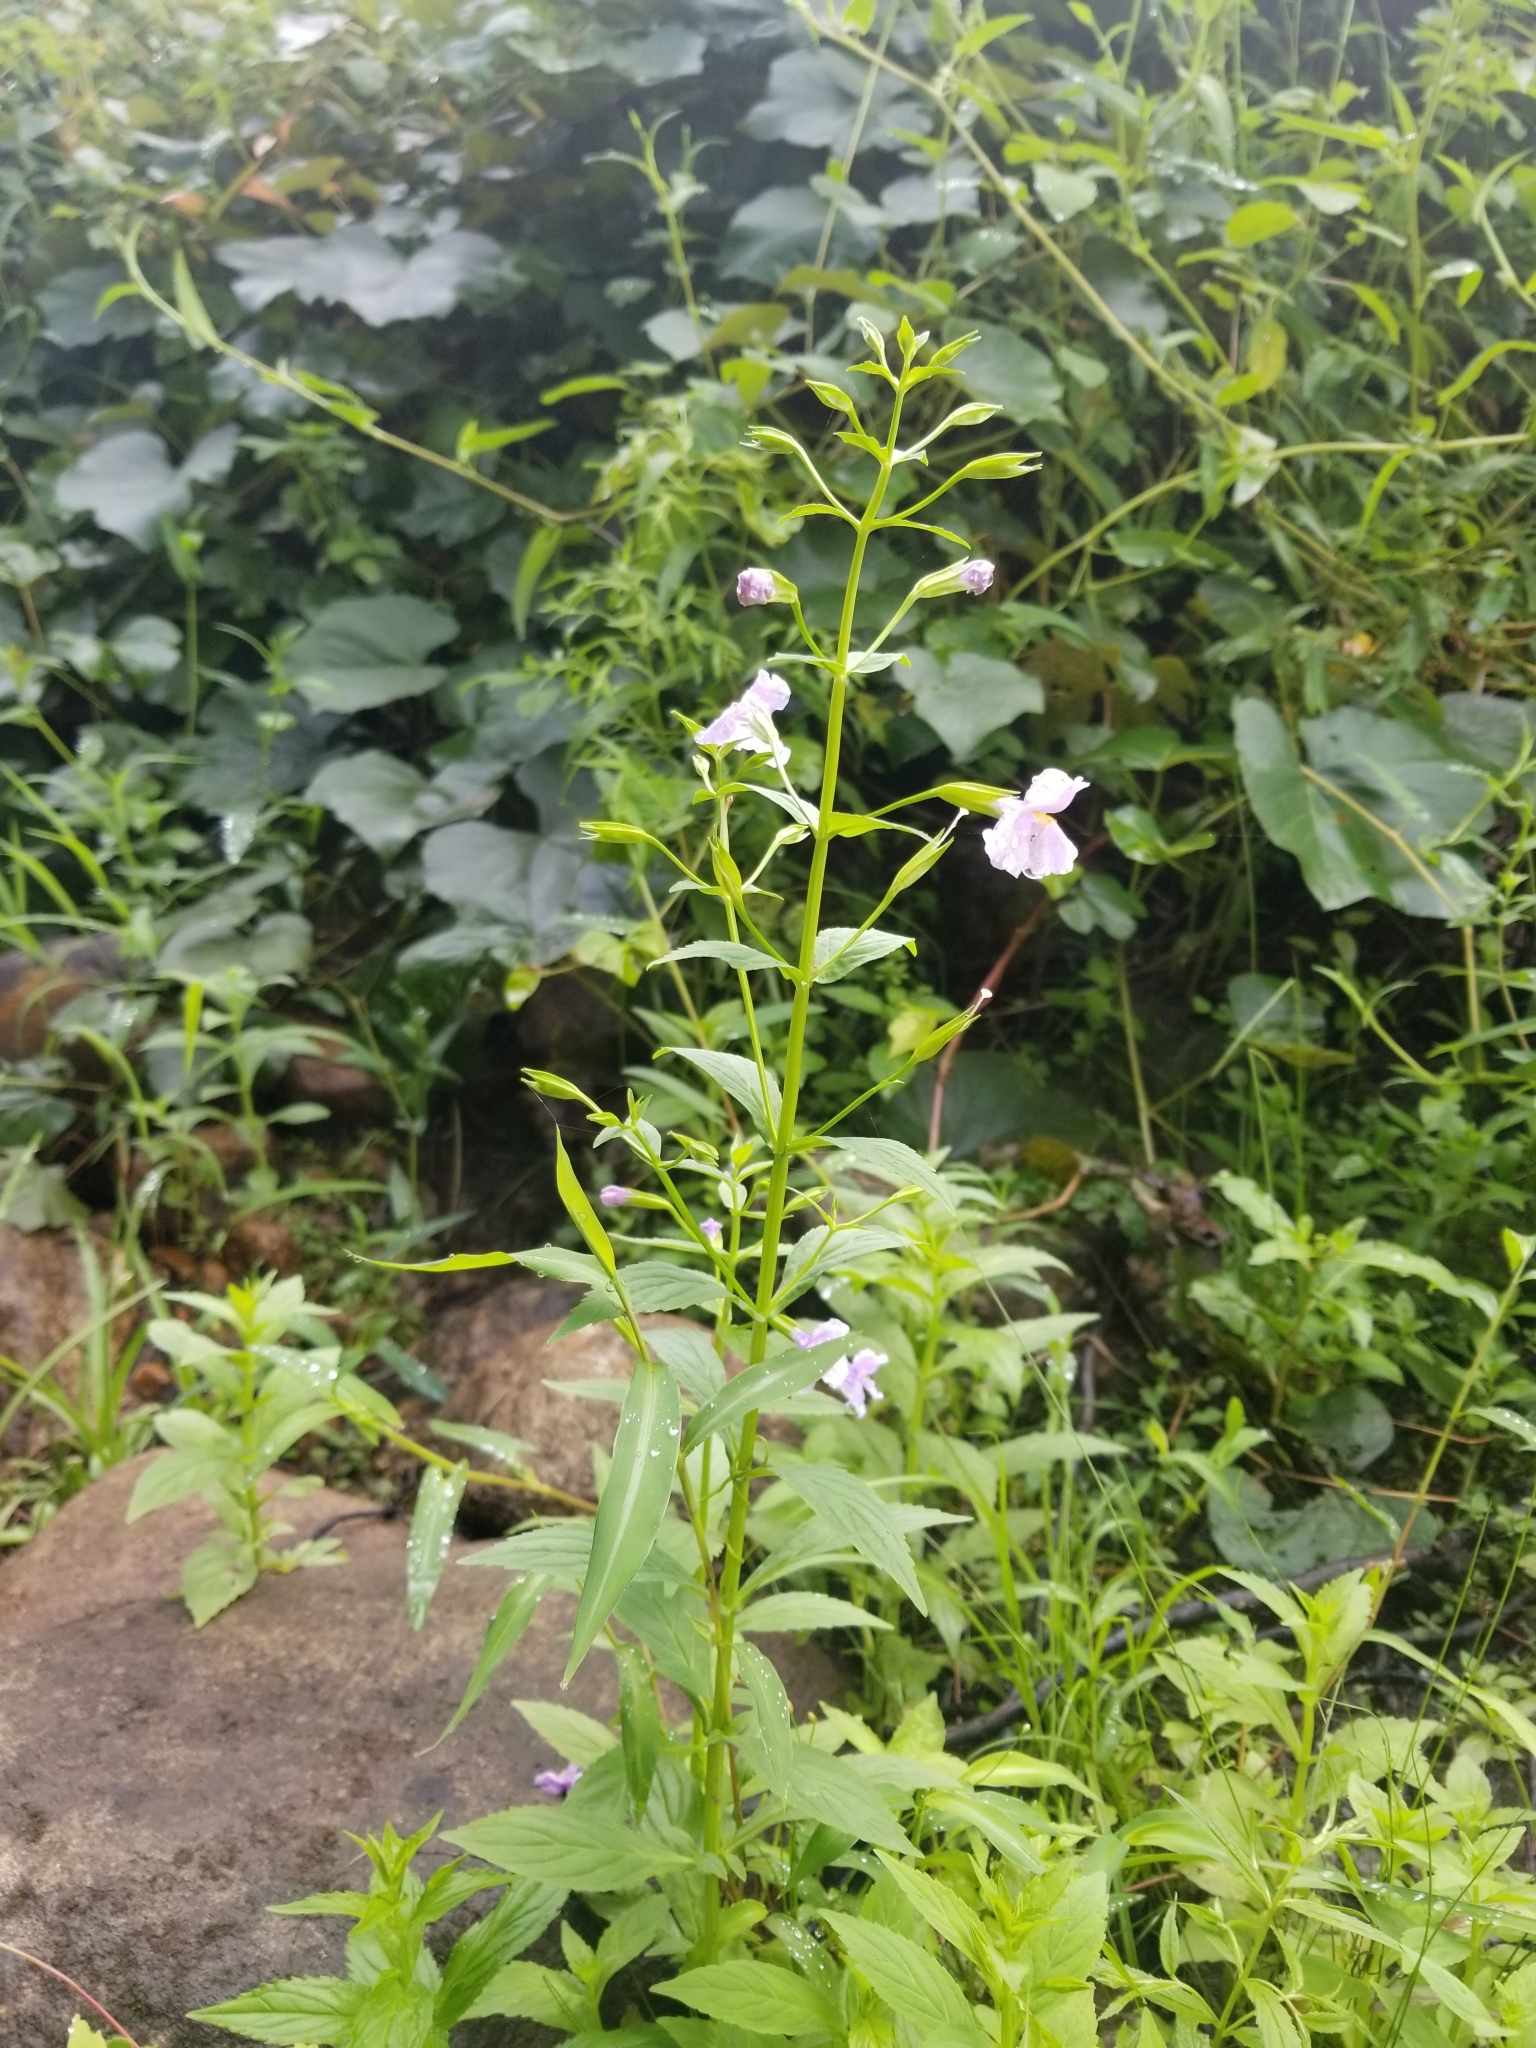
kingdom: Plantae
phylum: Tracheophyta
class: Magnoliopsida
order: Lamiales
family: Phrymaceae
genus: Mimulus
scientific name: Mimulus ringens
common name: Allegheny monkeyflower
